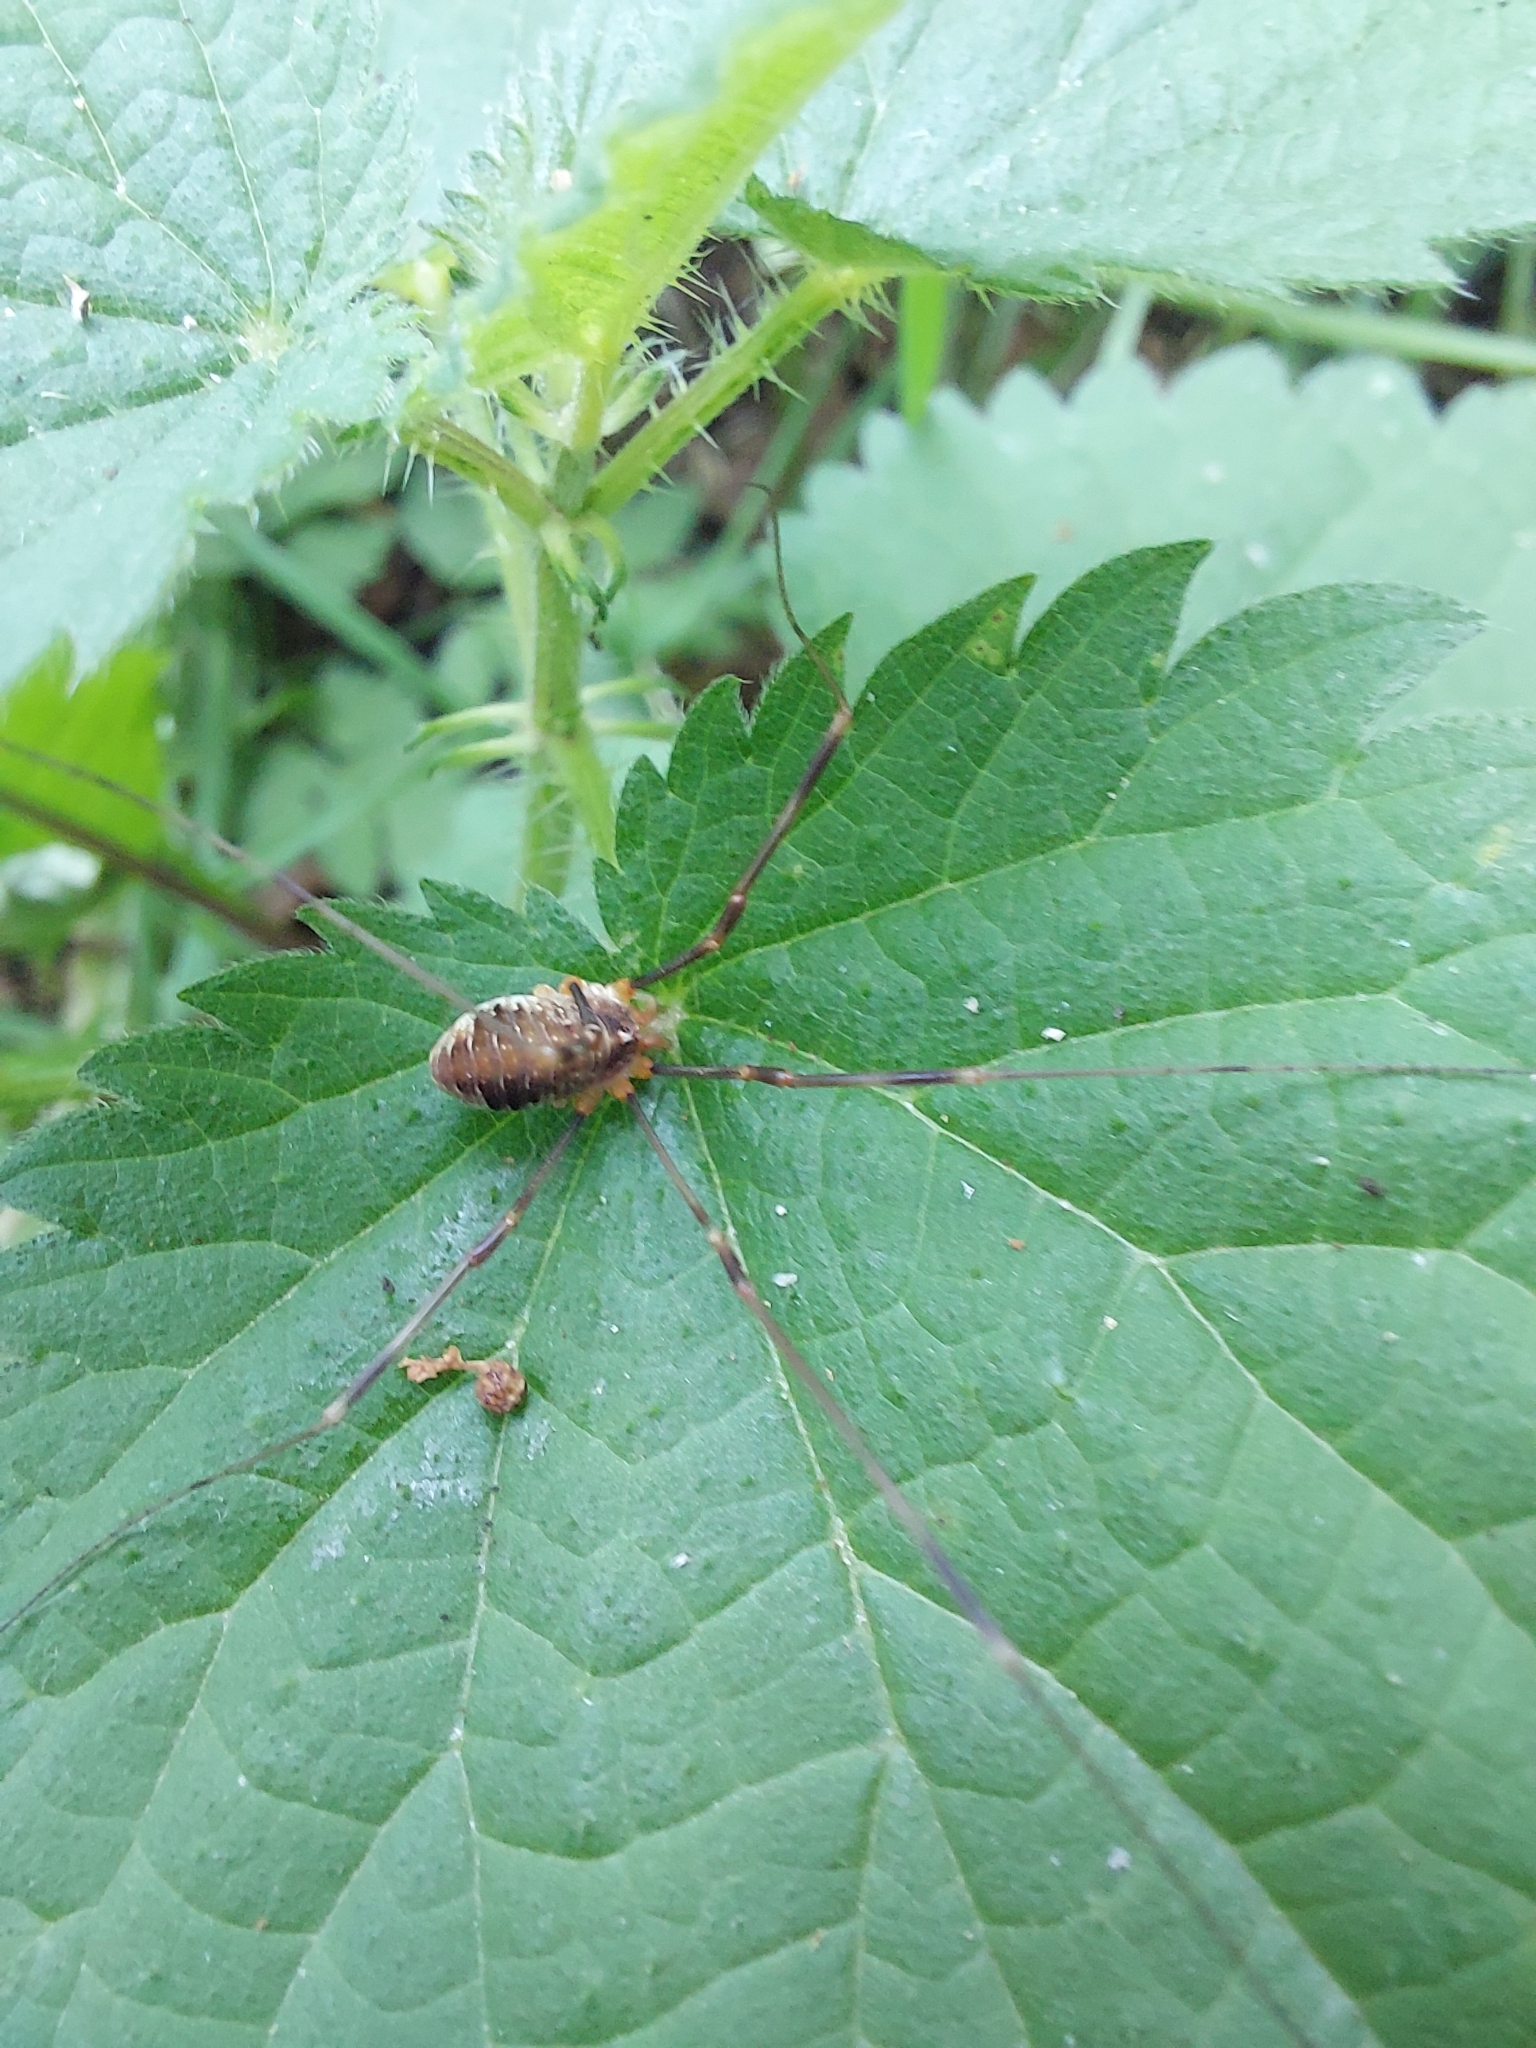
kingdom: Animalia
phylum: Arthropoda
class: Arachnida
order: Opiliones
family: Phalangiidae
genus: Opilio
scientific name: Opilio canestrinii
